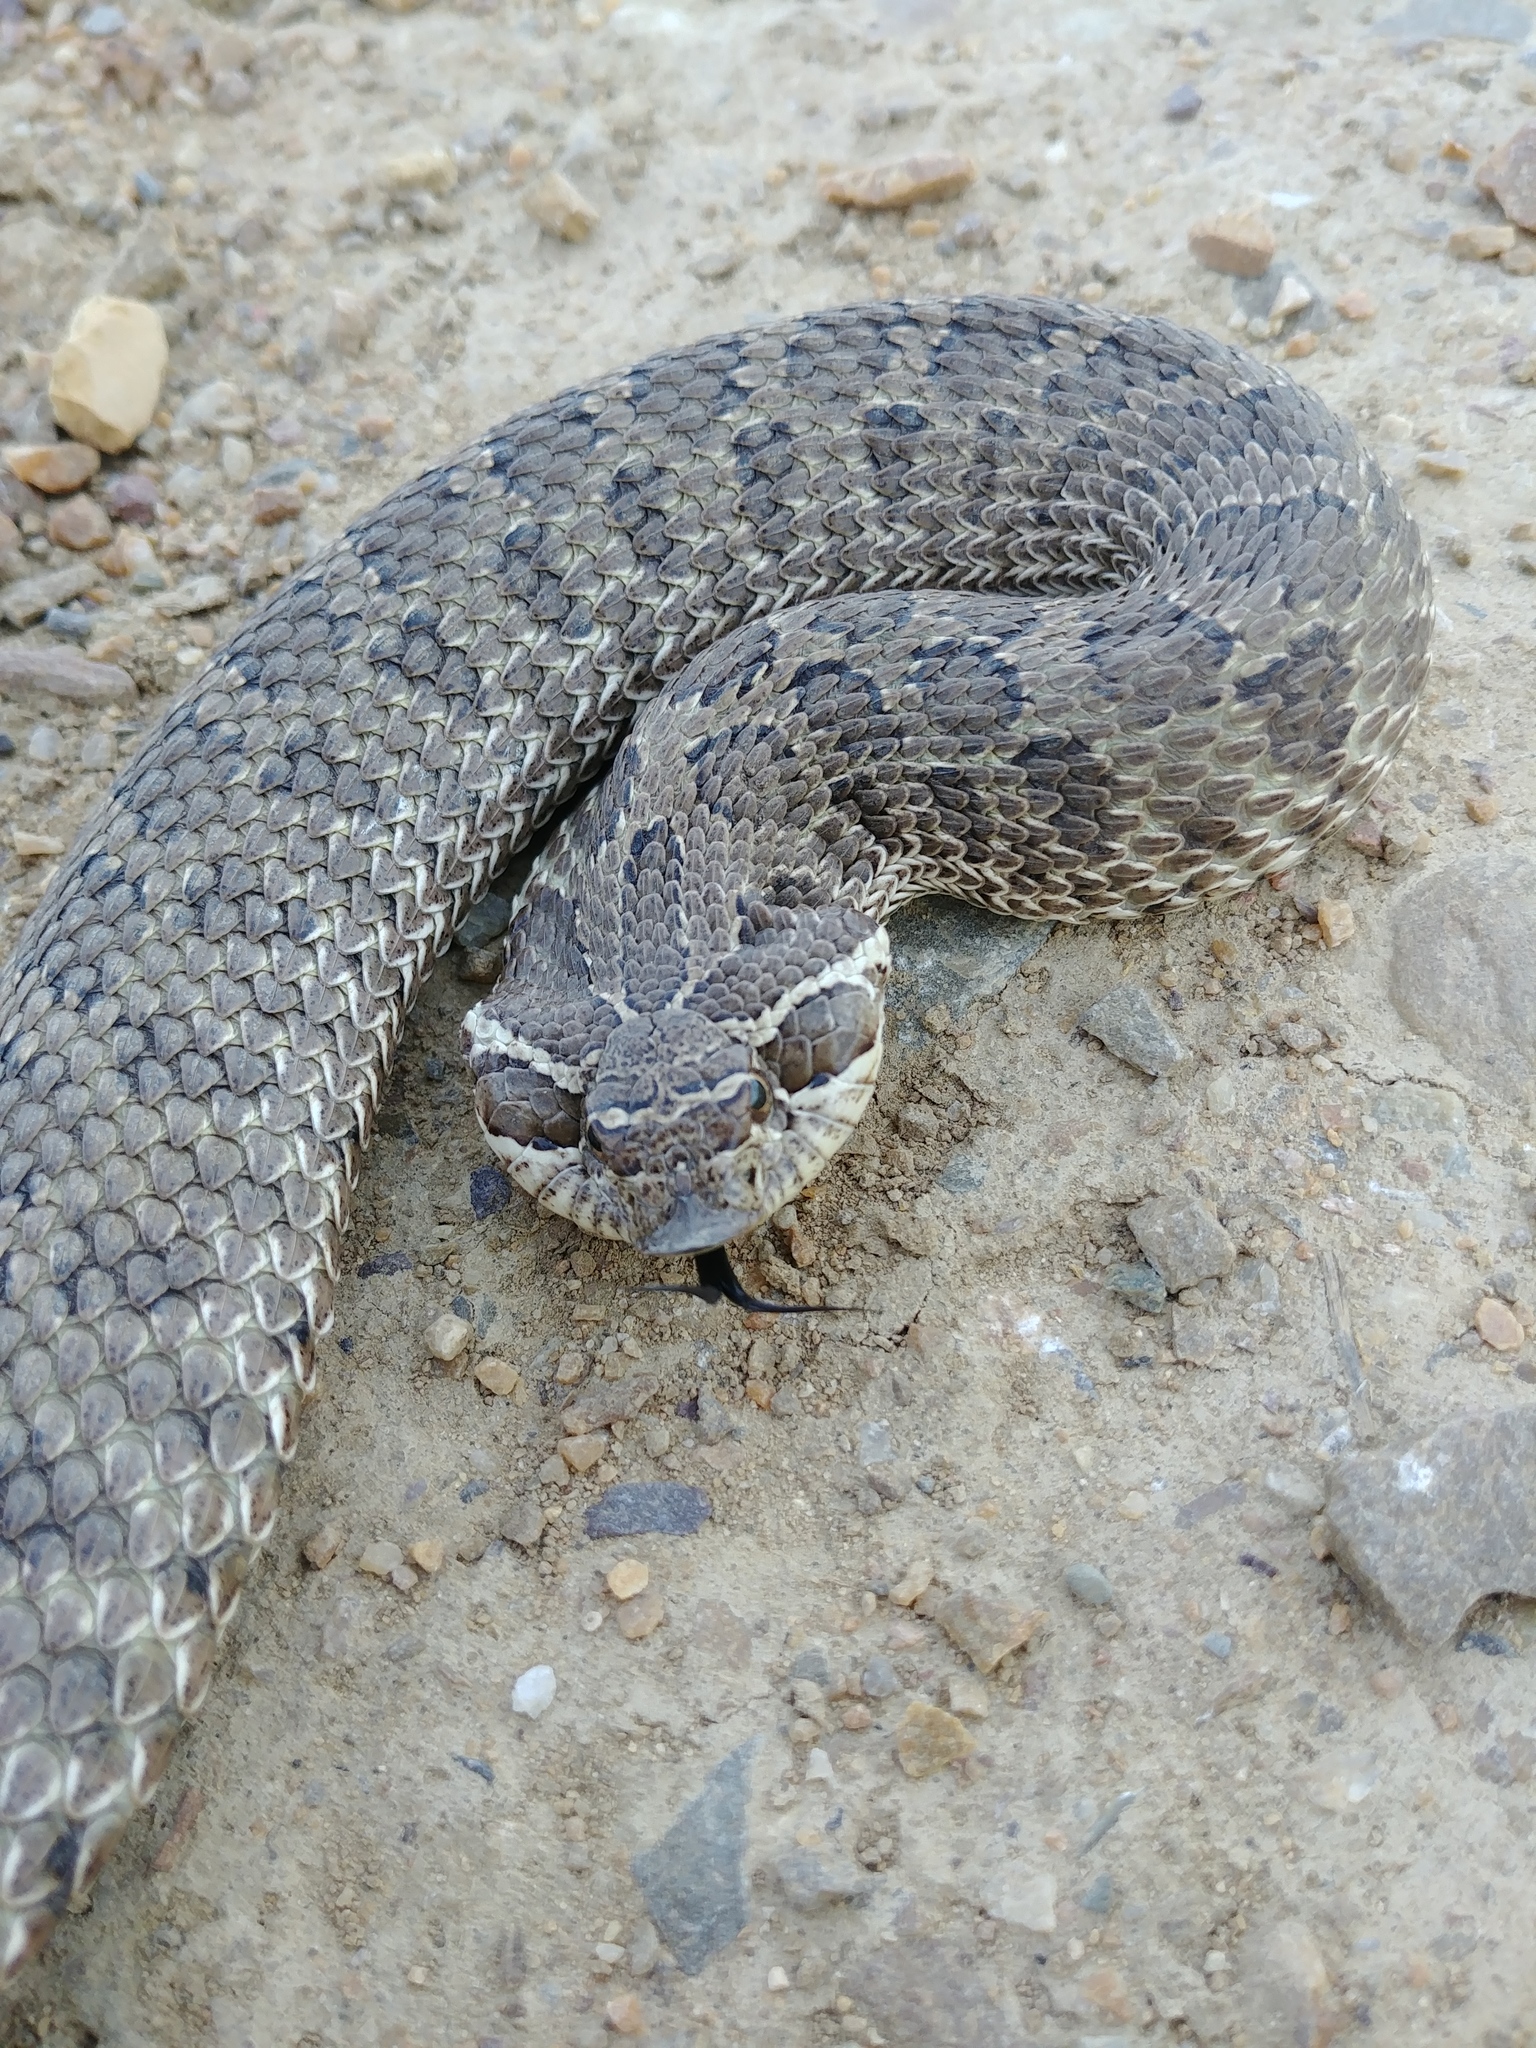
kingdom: Animalia
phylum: Chordata
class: Squamata
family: Colubridae
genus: Heterodon
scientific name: Heterodon nasicus
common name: Western hognose snake
